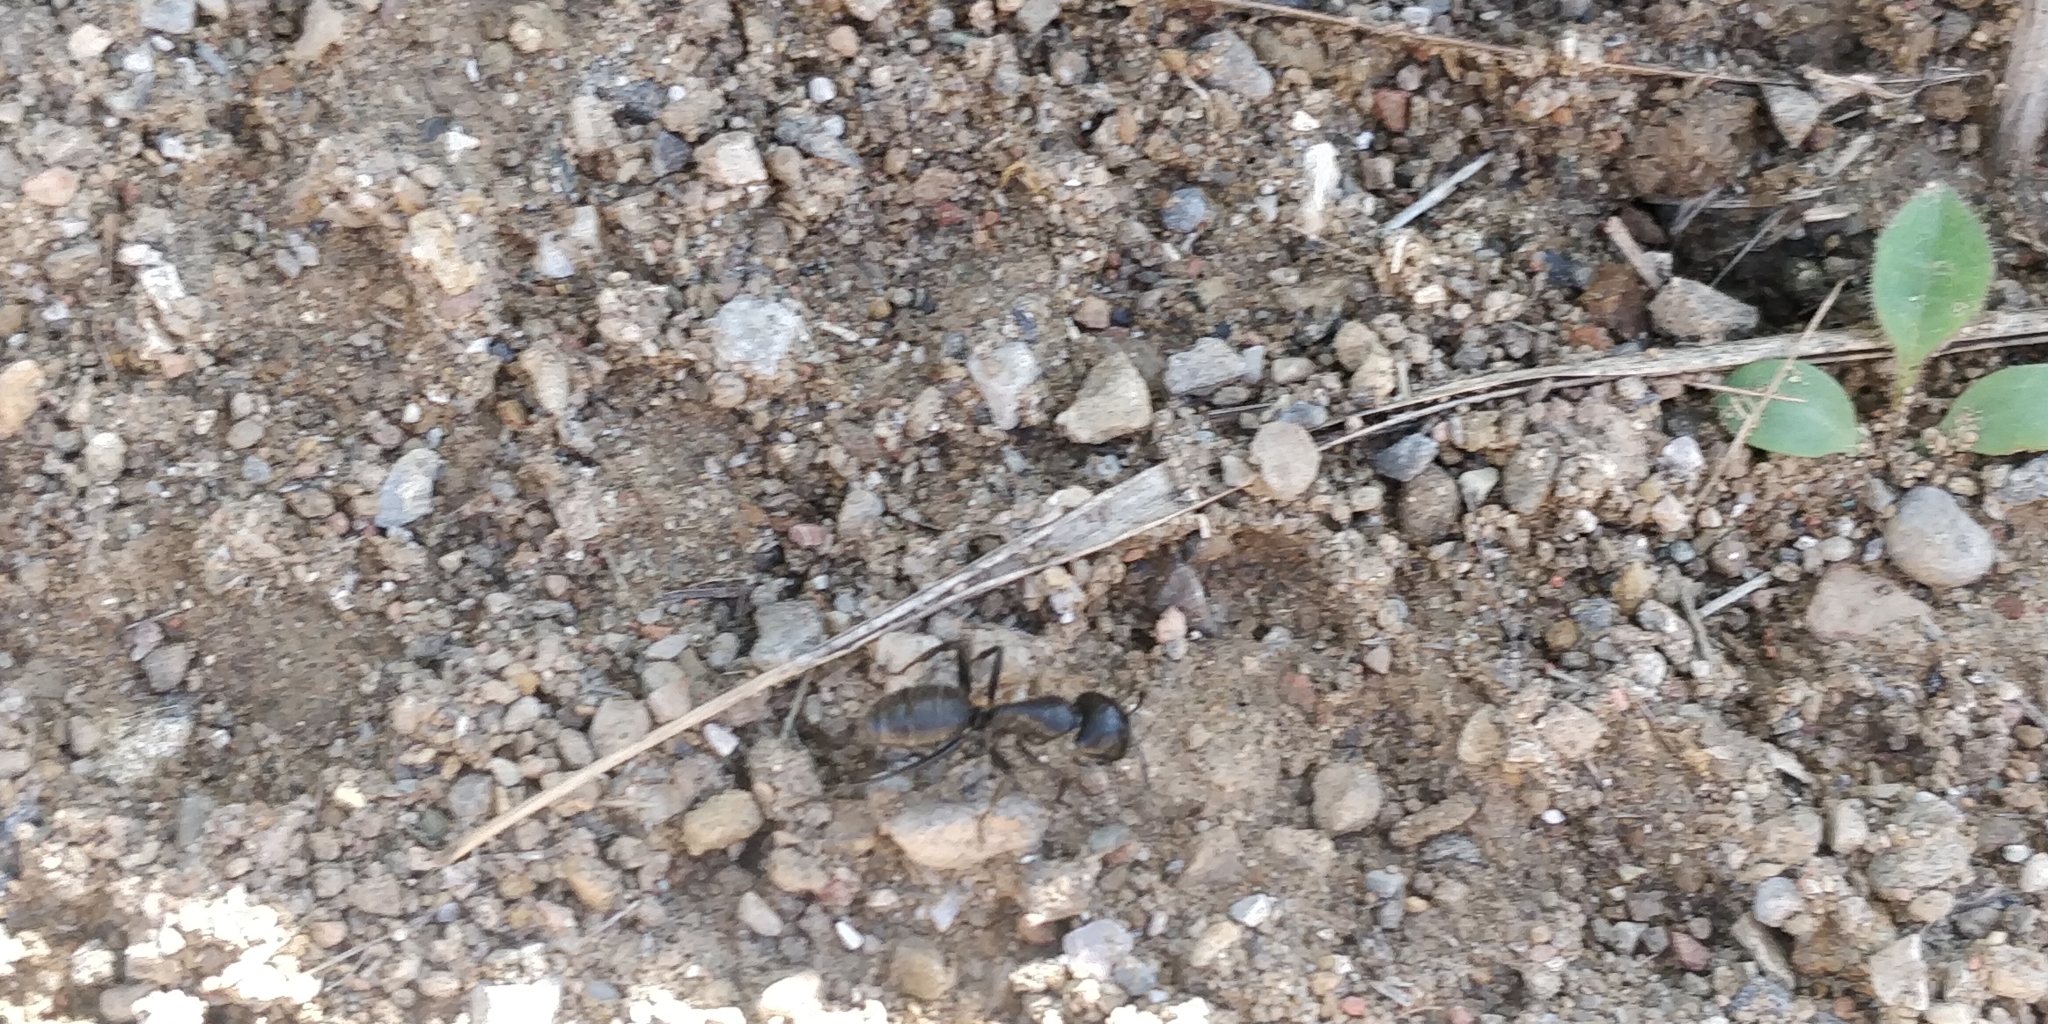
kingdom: Animalia
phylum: Arthropoda
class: Insecta
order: Hymenoptera
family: Formicidae
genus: Camponotus
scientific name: Camponotus vagus
